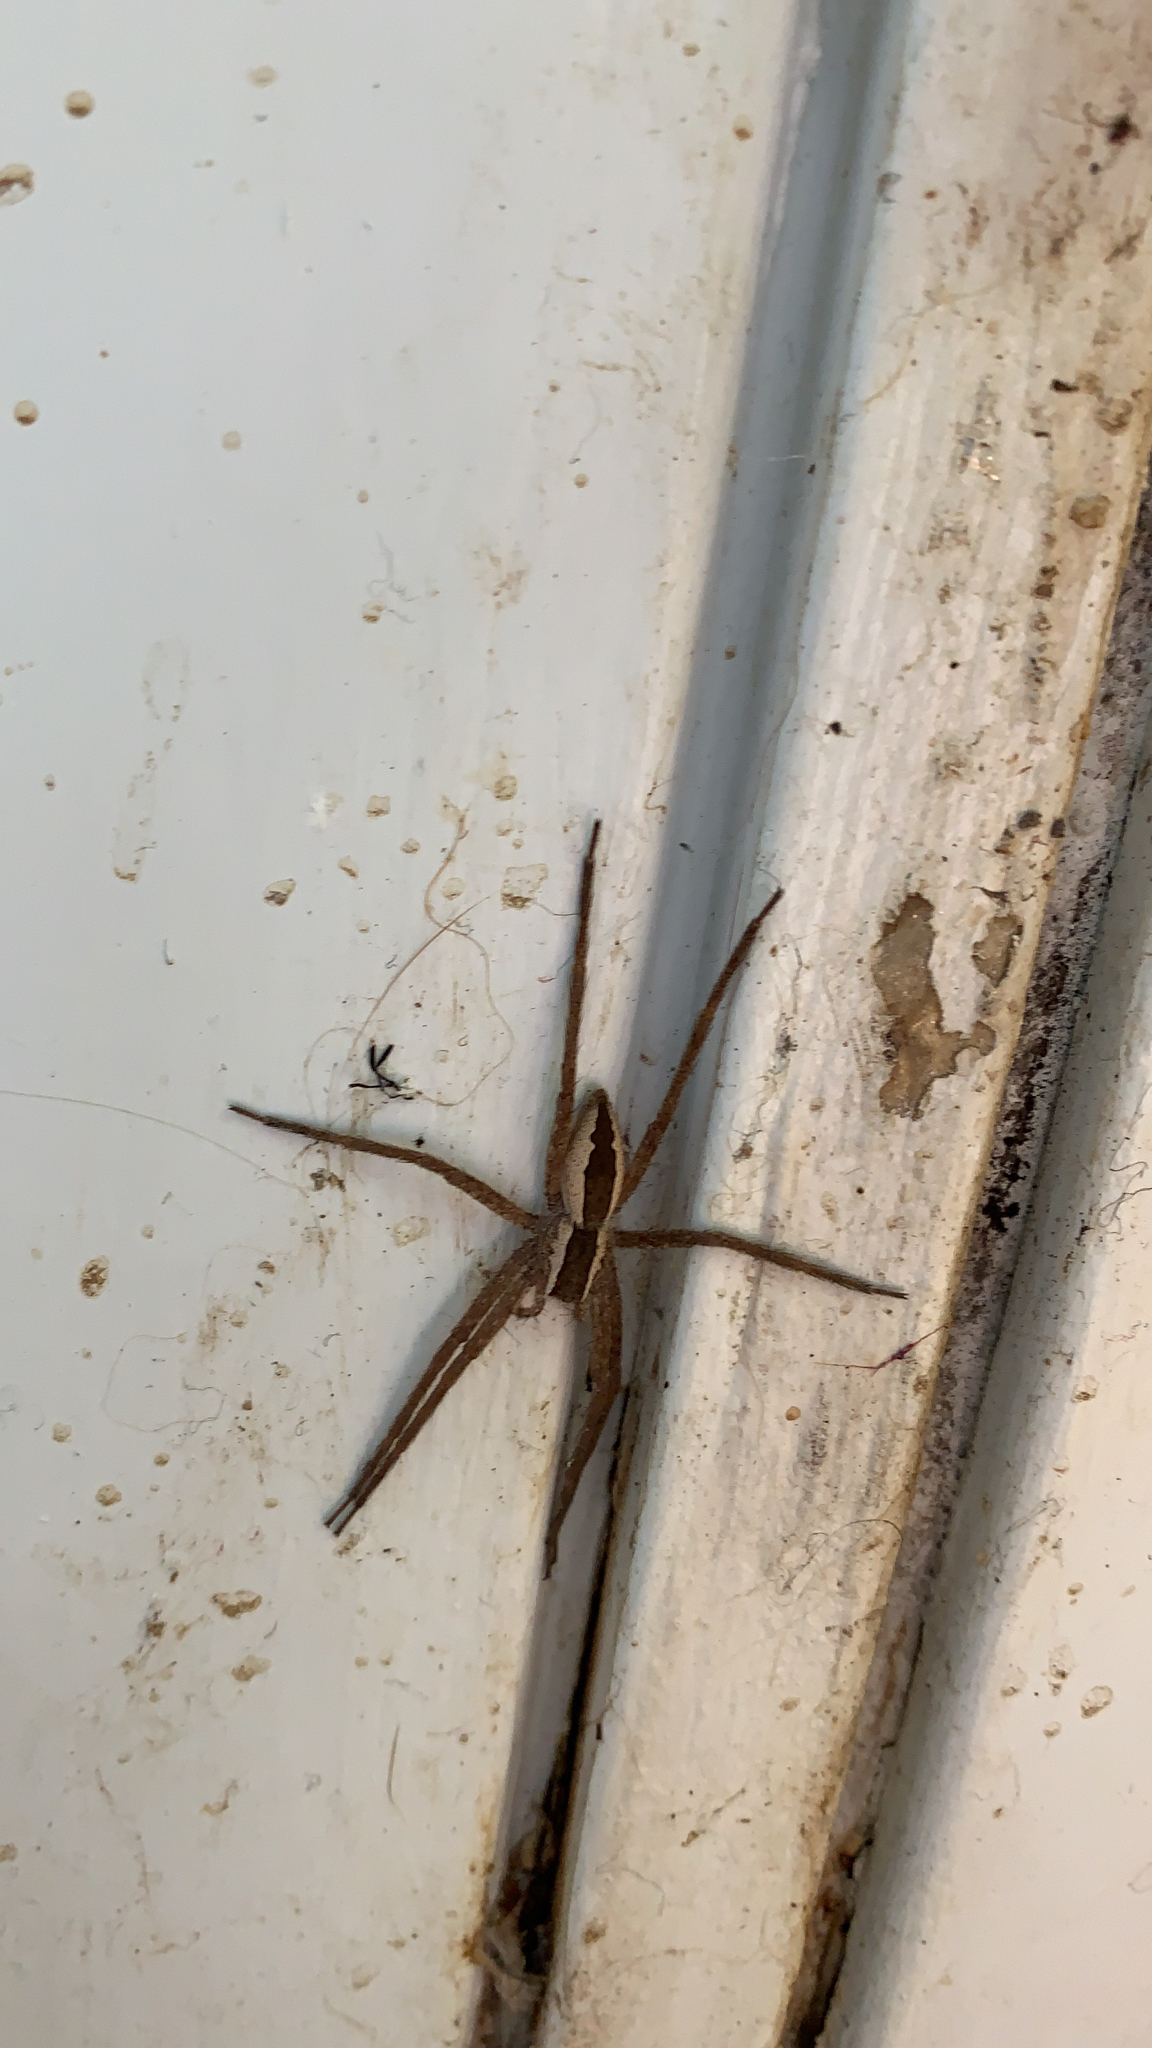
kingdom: Animalia
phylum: Arthropoda
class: Arachnida
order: Araneae
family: Pisauridae
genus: Pisaurina
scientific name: Pisaurina mira
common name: American nursery web spider
